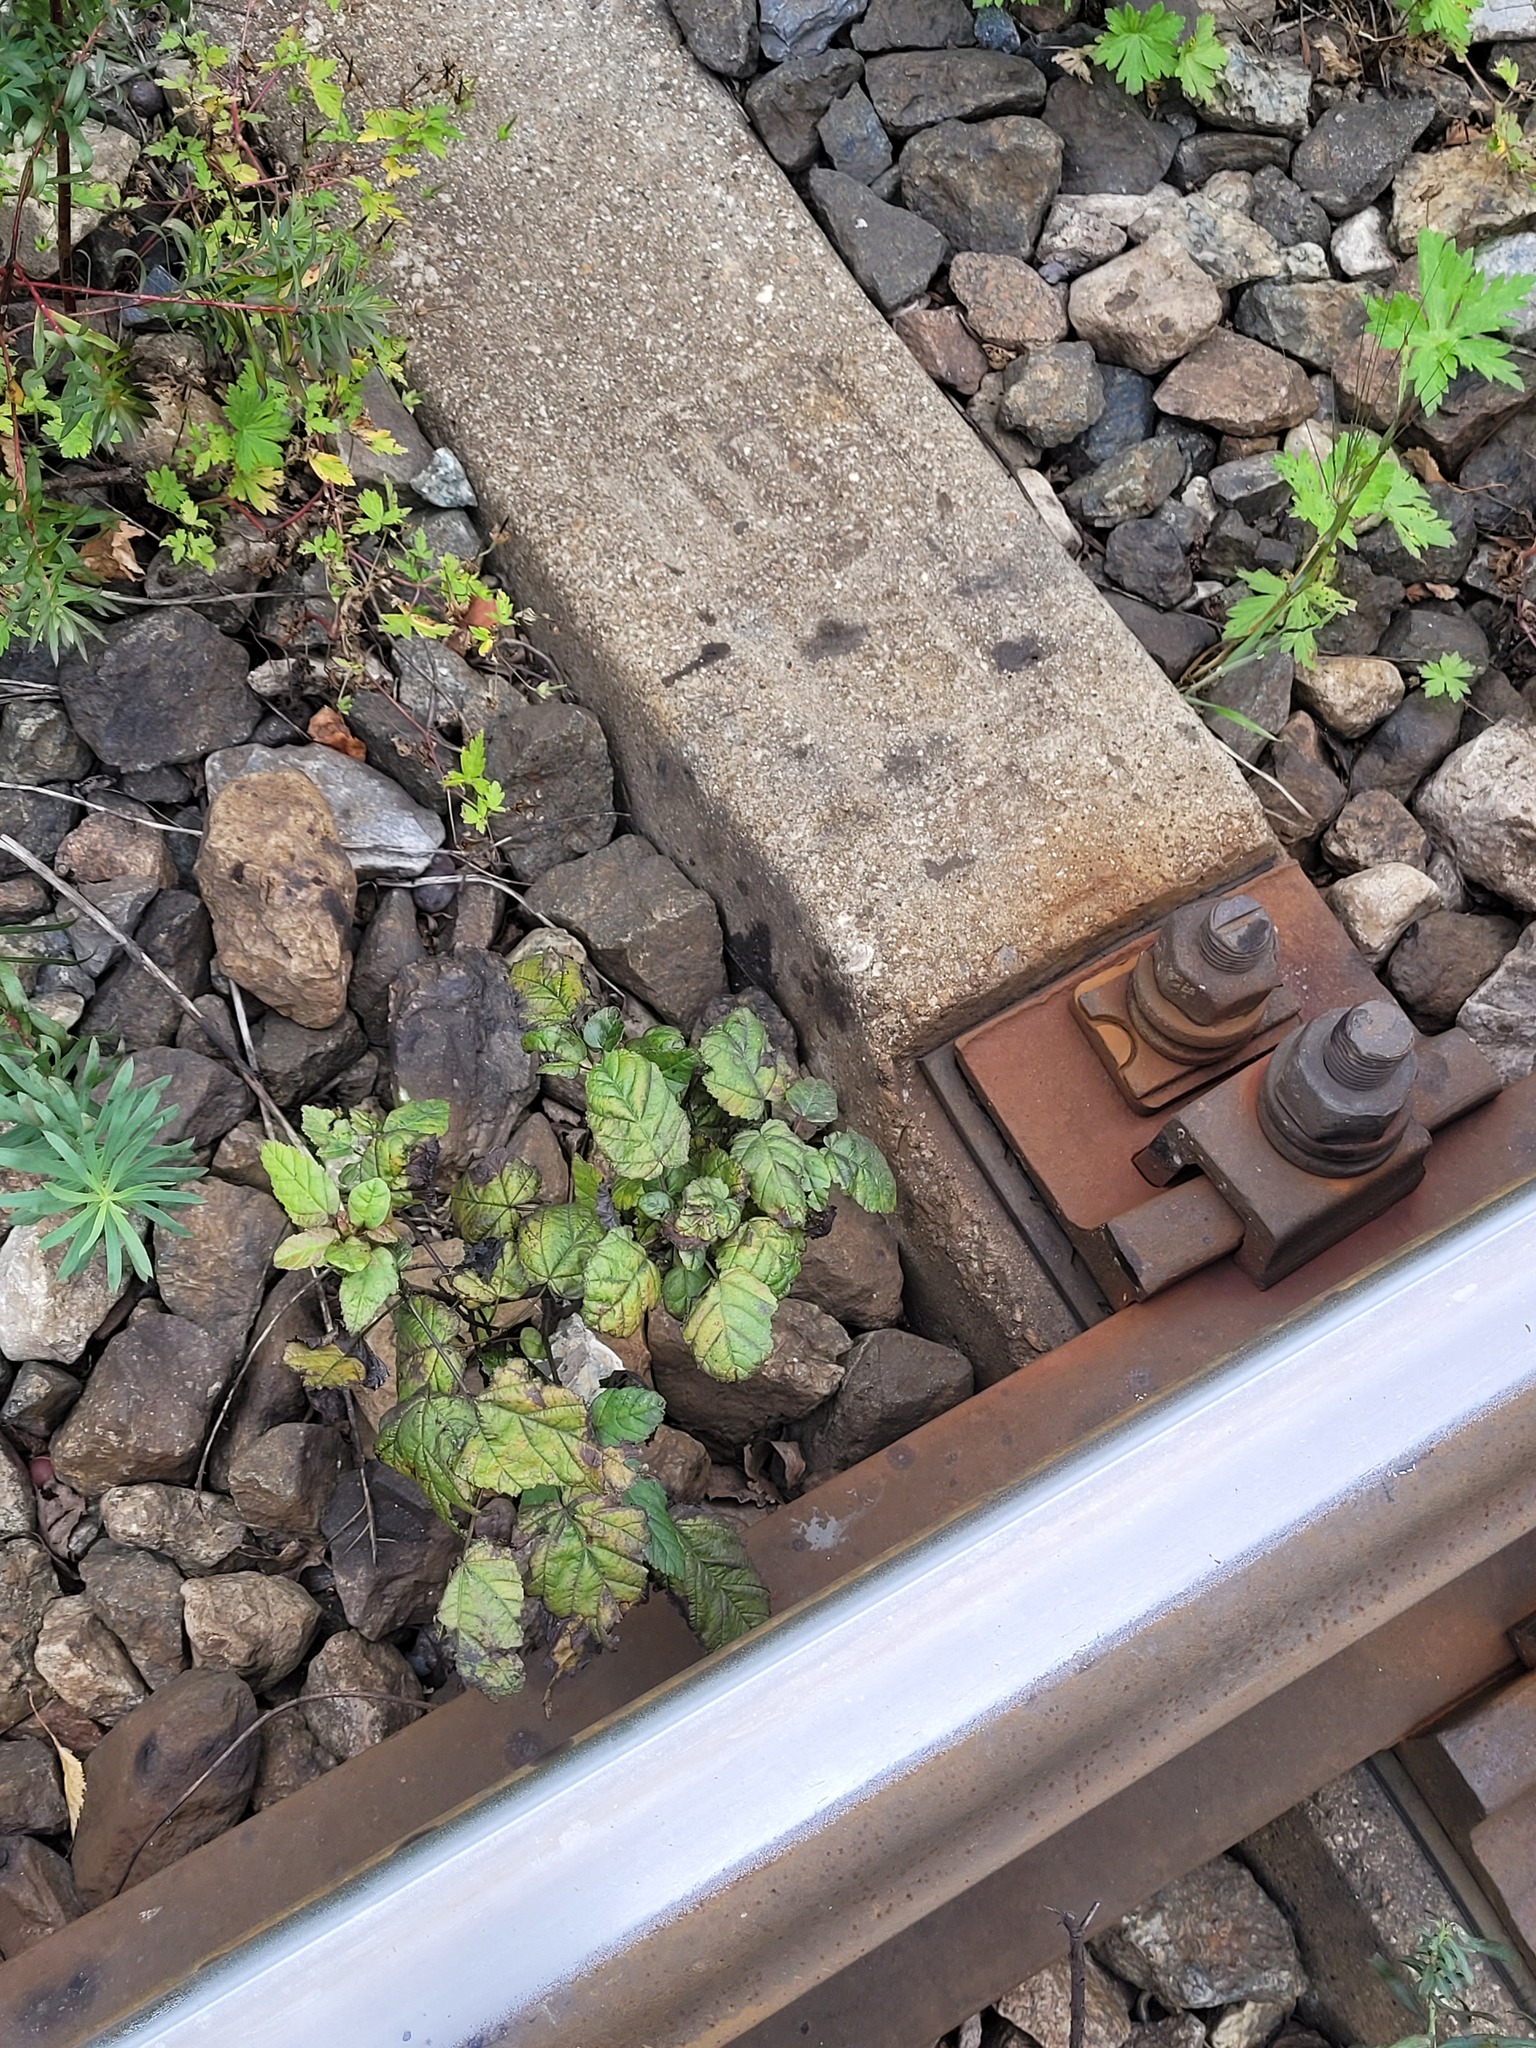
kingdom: Plantae
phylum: Tracheophyta
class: Magnoliopsida
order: Sapindales
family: Sapindaceae
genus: Acer
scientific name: Acer tataricum
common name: Tartar maple
